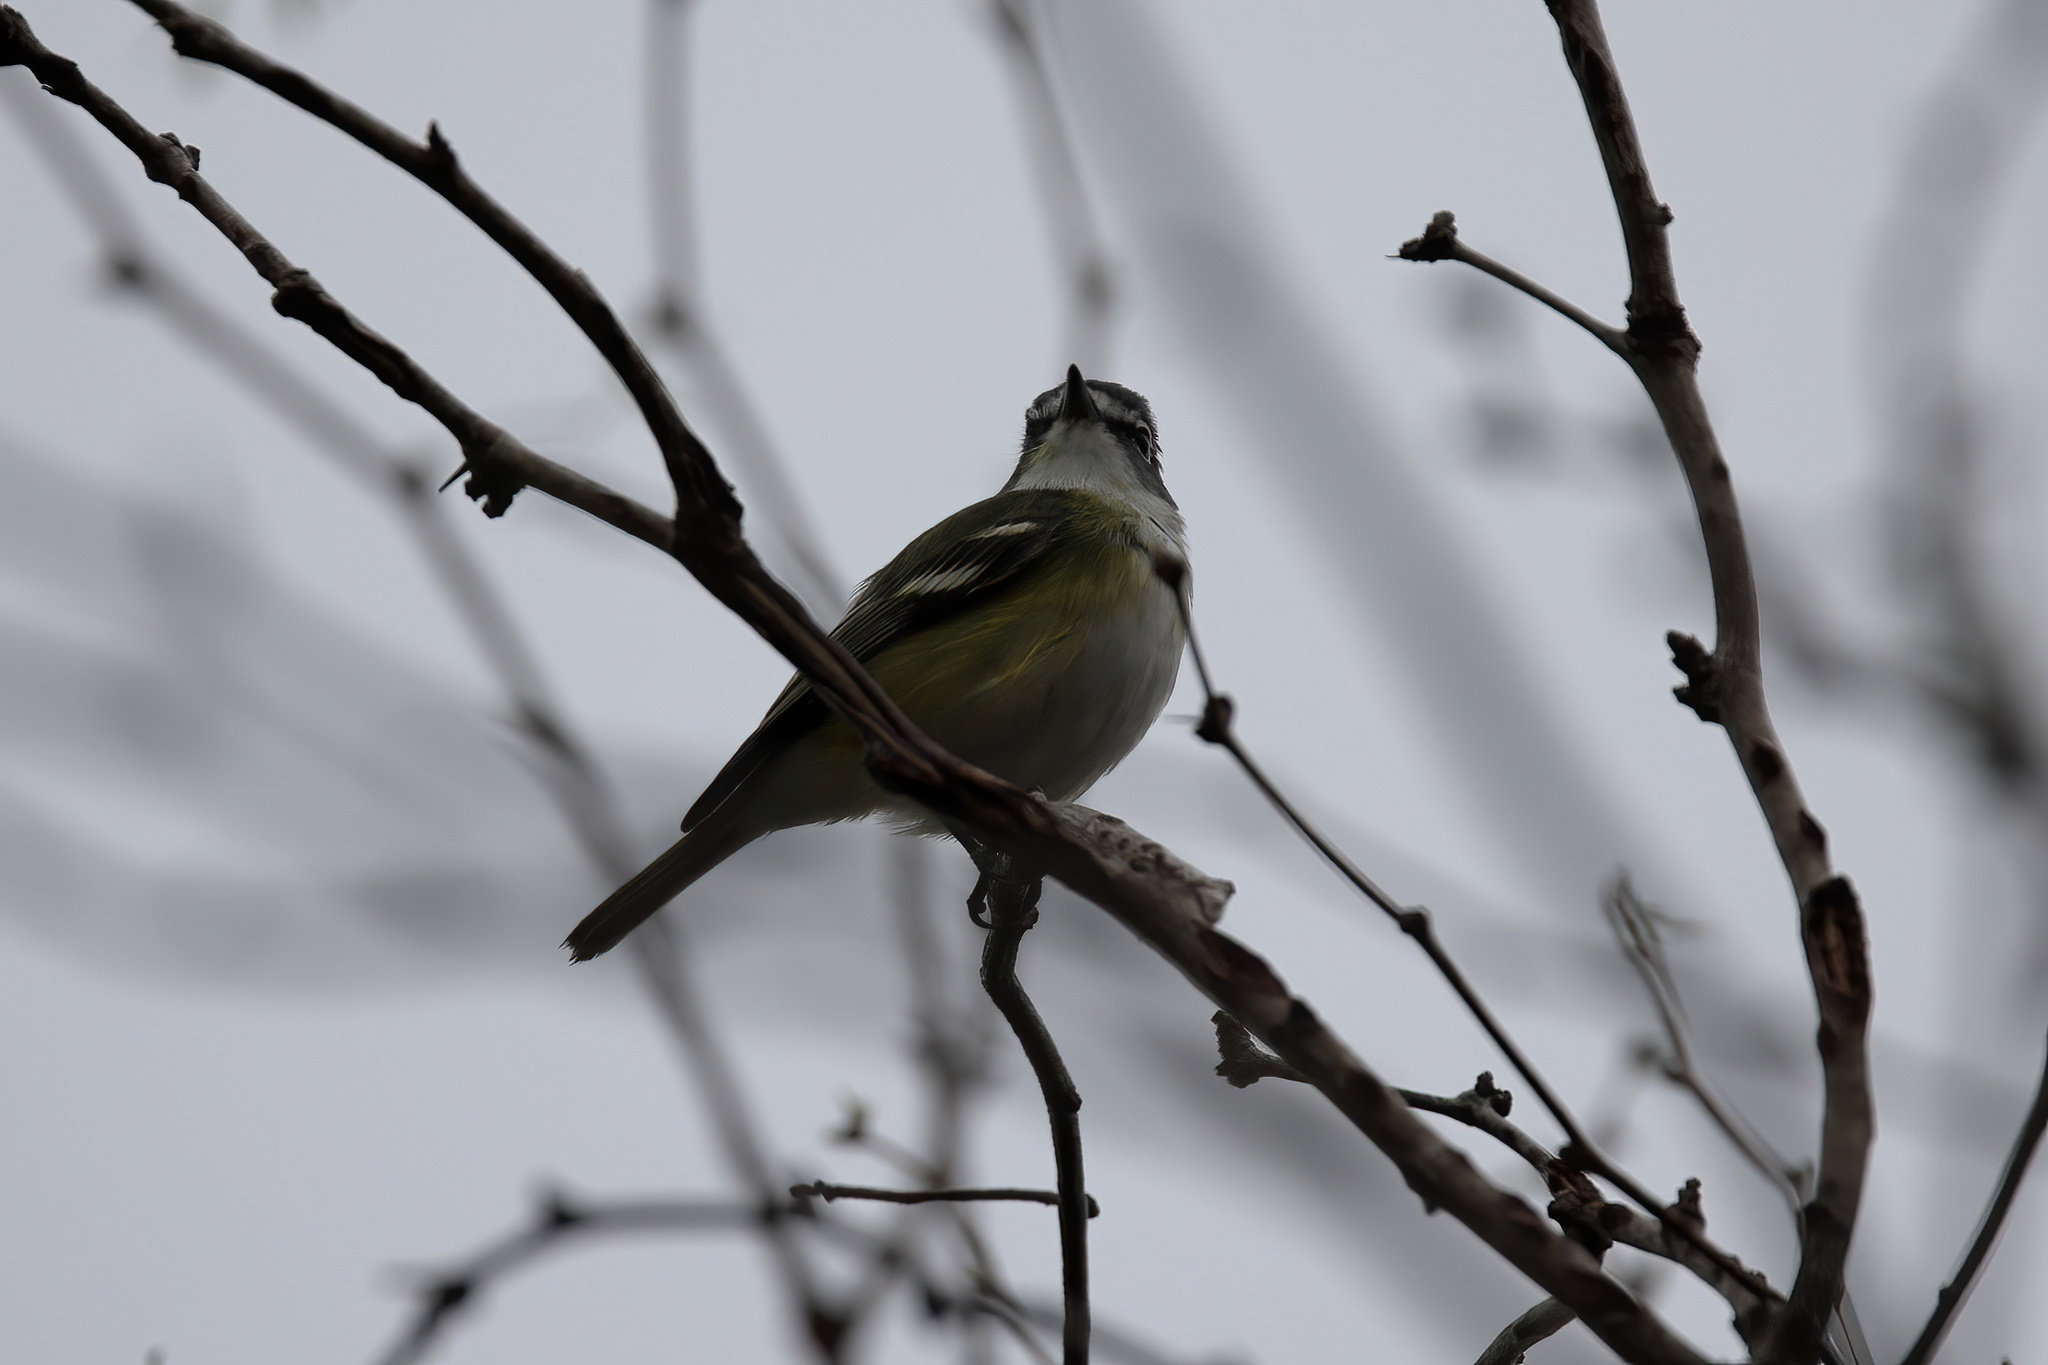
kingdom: Animalia
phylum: Chordata
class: Aves
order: Passeriformes
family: Vireonidae
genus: Vireo
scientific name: Vireo solitarius
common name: Blue-headed vireo
